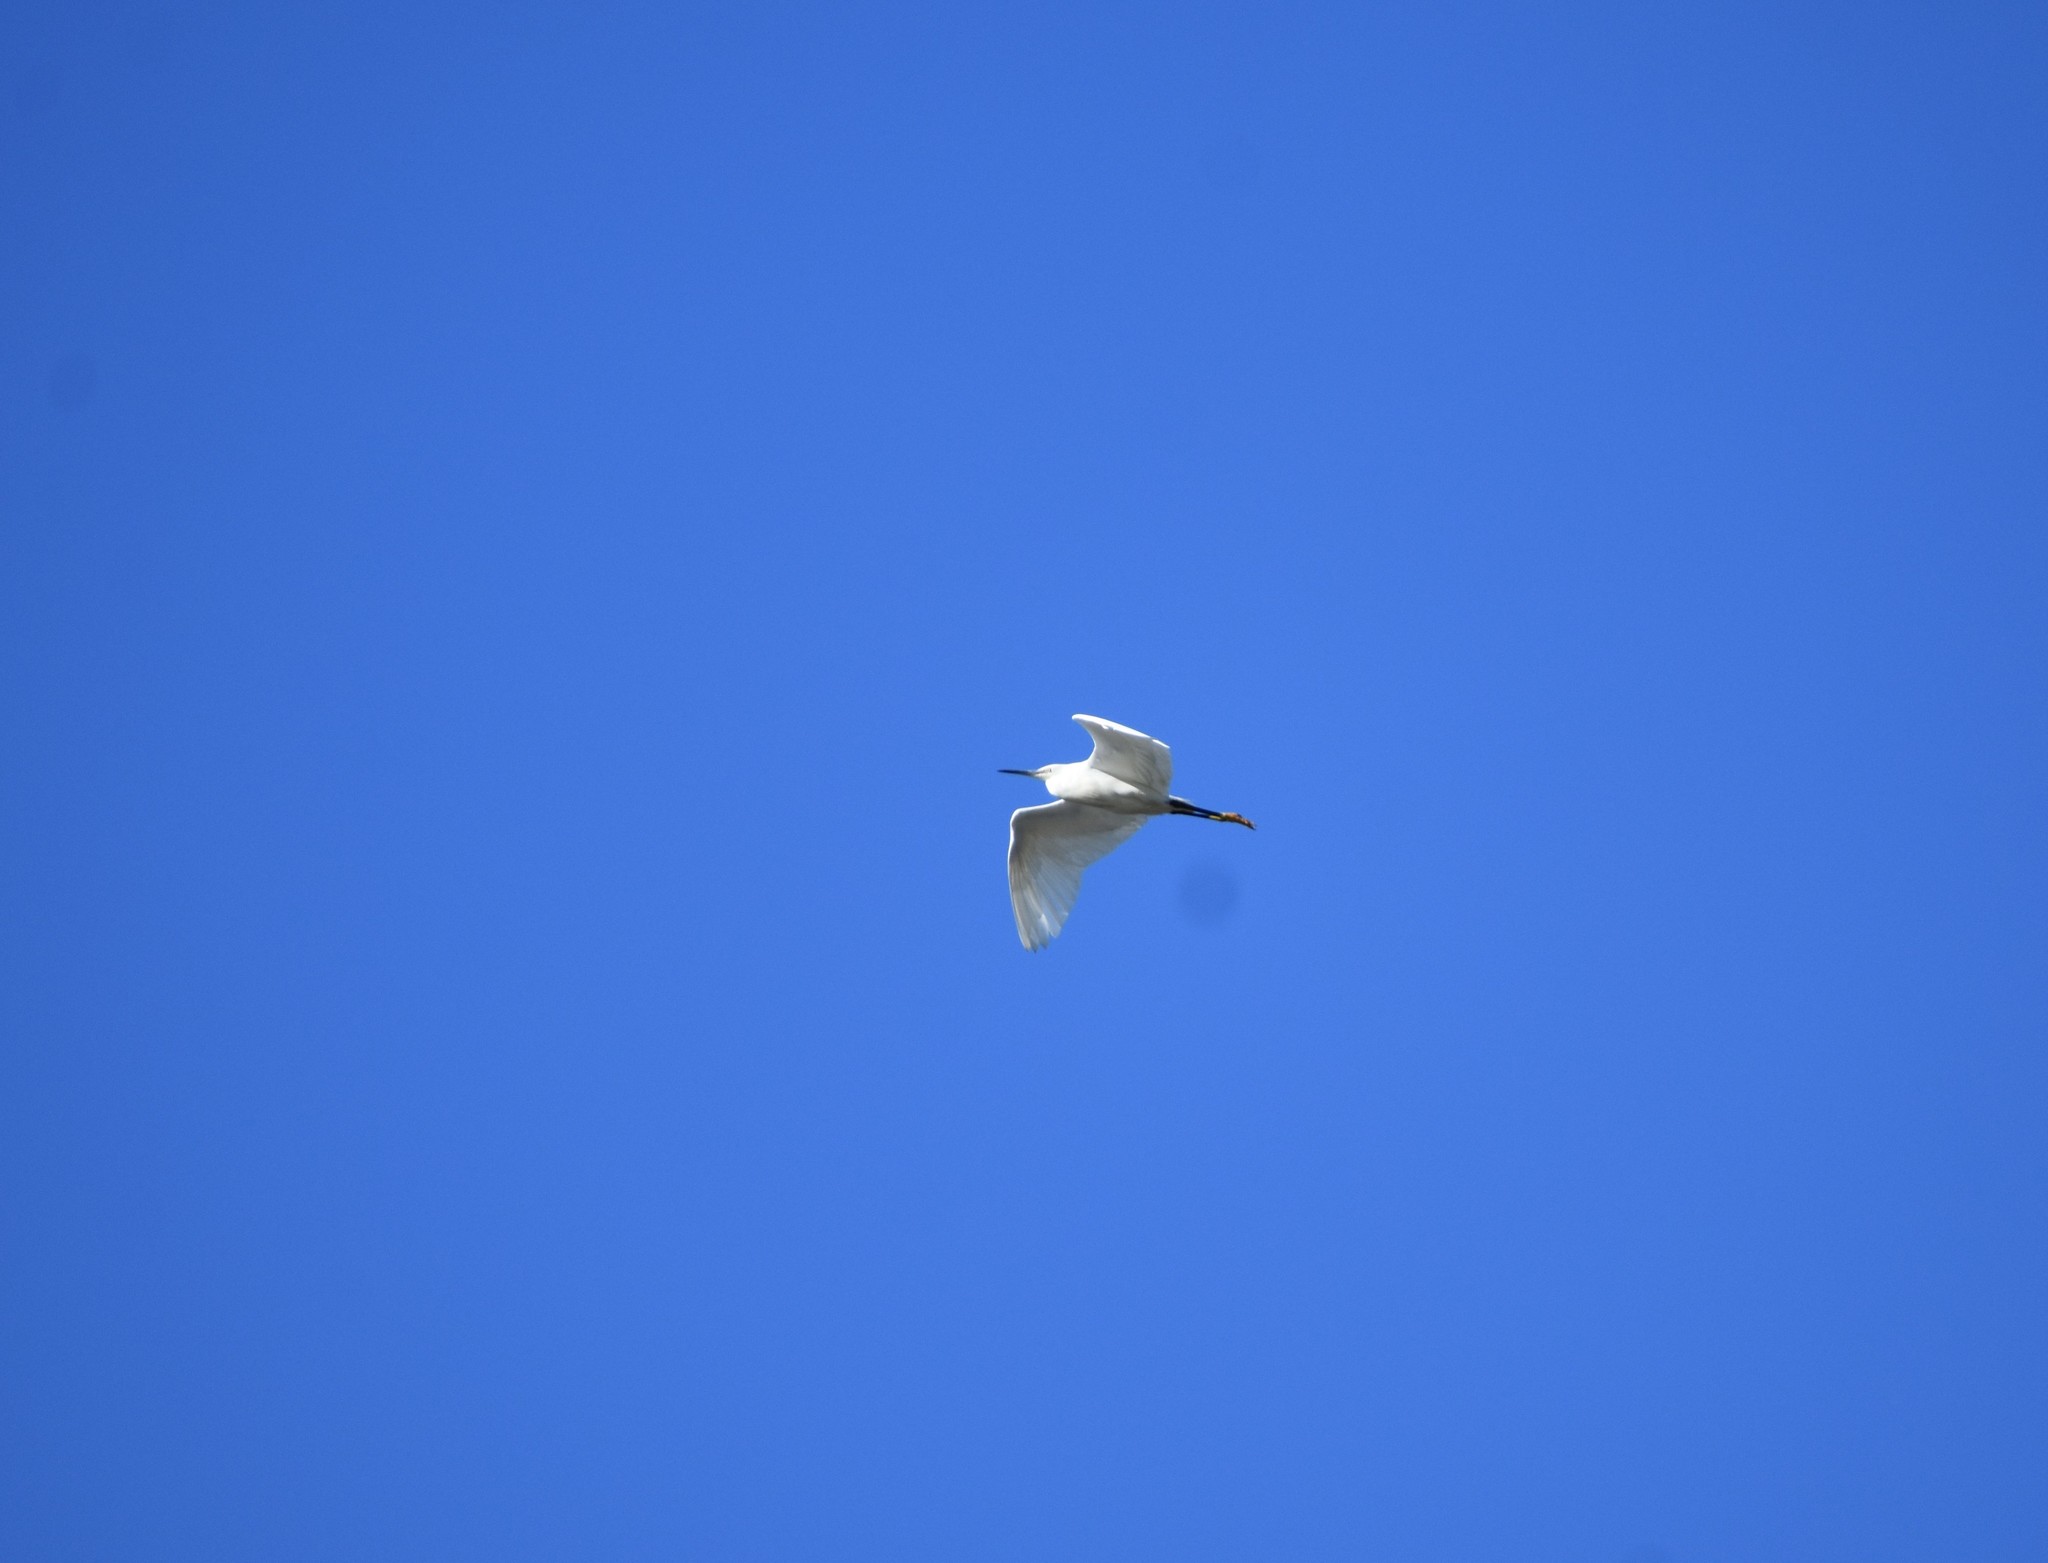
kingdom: Animalia
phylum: Chordata
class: Aves
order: Pelecaniformes
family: Ardeidae
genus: Egretta
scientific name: Egretta garzetta
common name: Little egret
